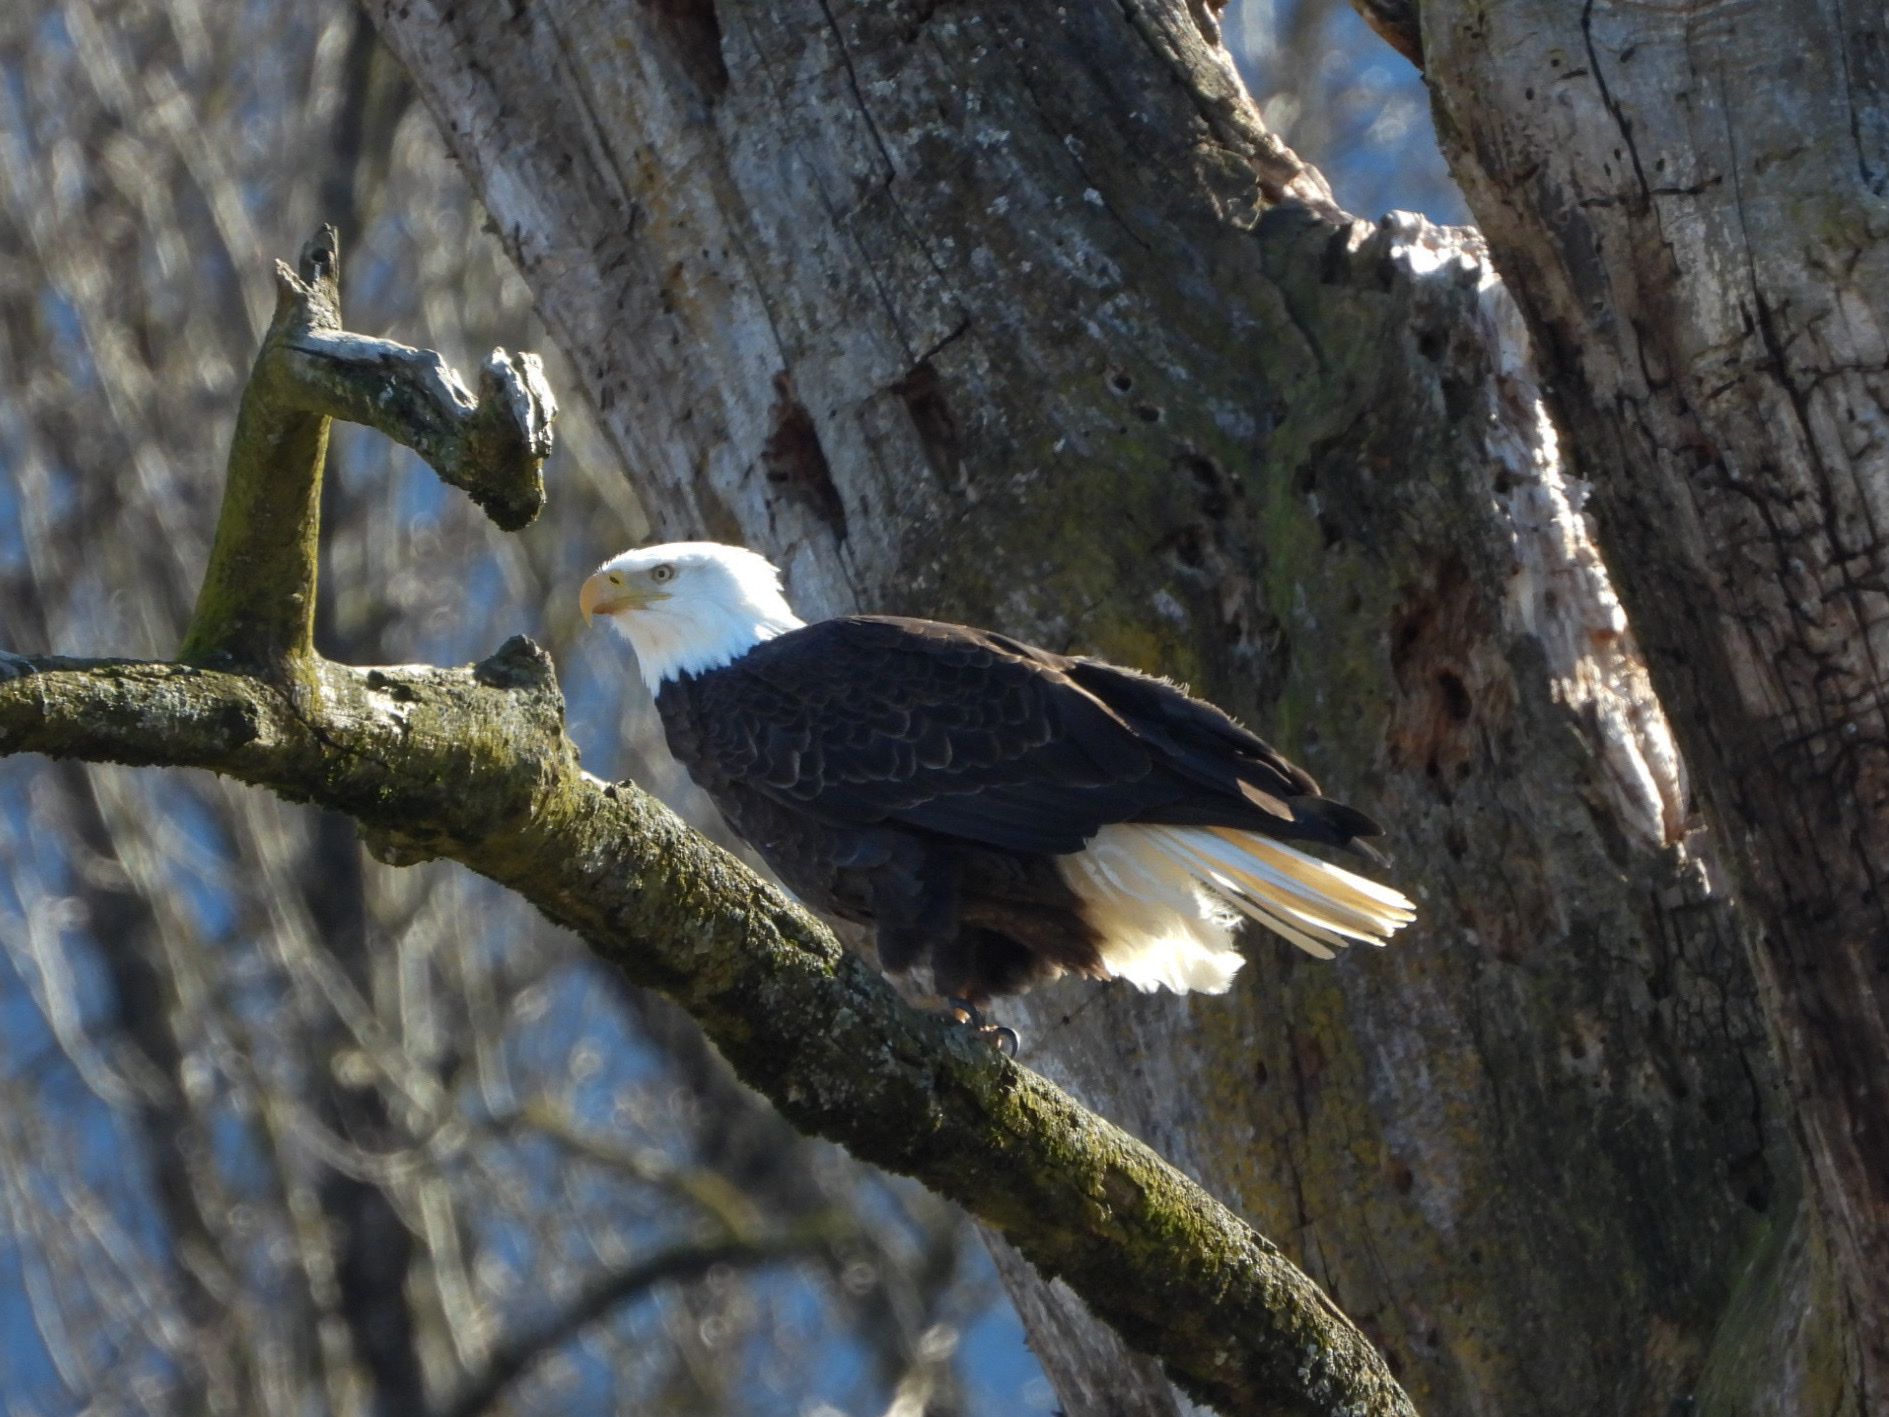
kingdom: Animalia
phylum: Chordata
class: Aves
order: Accipitriformes
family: Accipitridae
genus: Haliaeetus
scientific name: Haliaeetus leucocephalus
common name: Bald eagle
